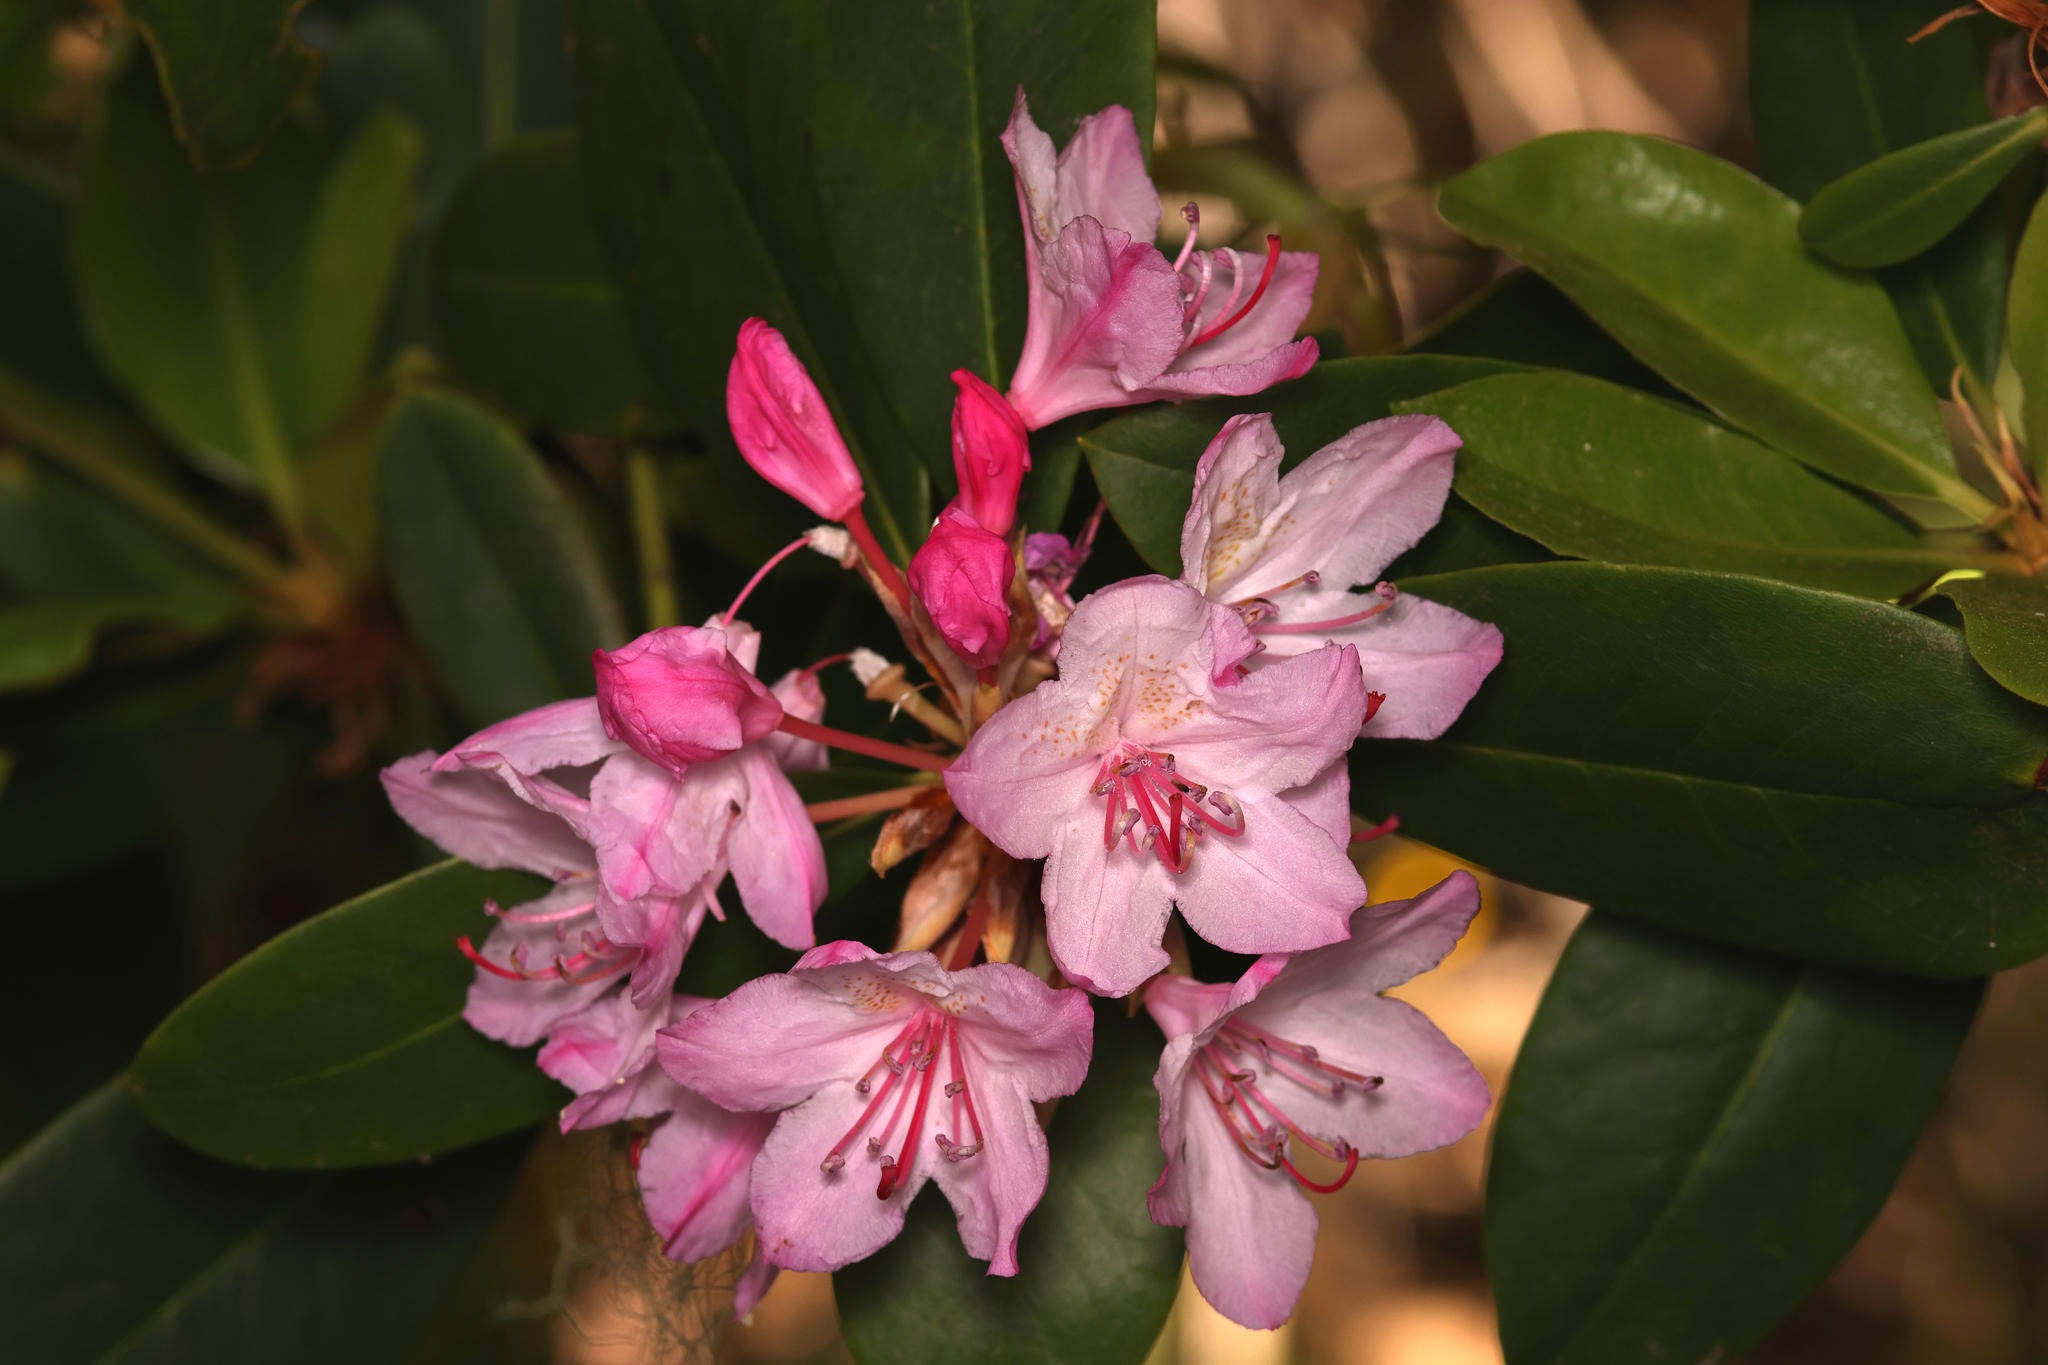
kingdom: Plantae
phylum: Tracheophyta
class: Magnoliopsida
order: Ericales
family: Ericaceae
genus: Rhododendron
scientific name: Rhododendron macrophyllum
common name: California rose bay
